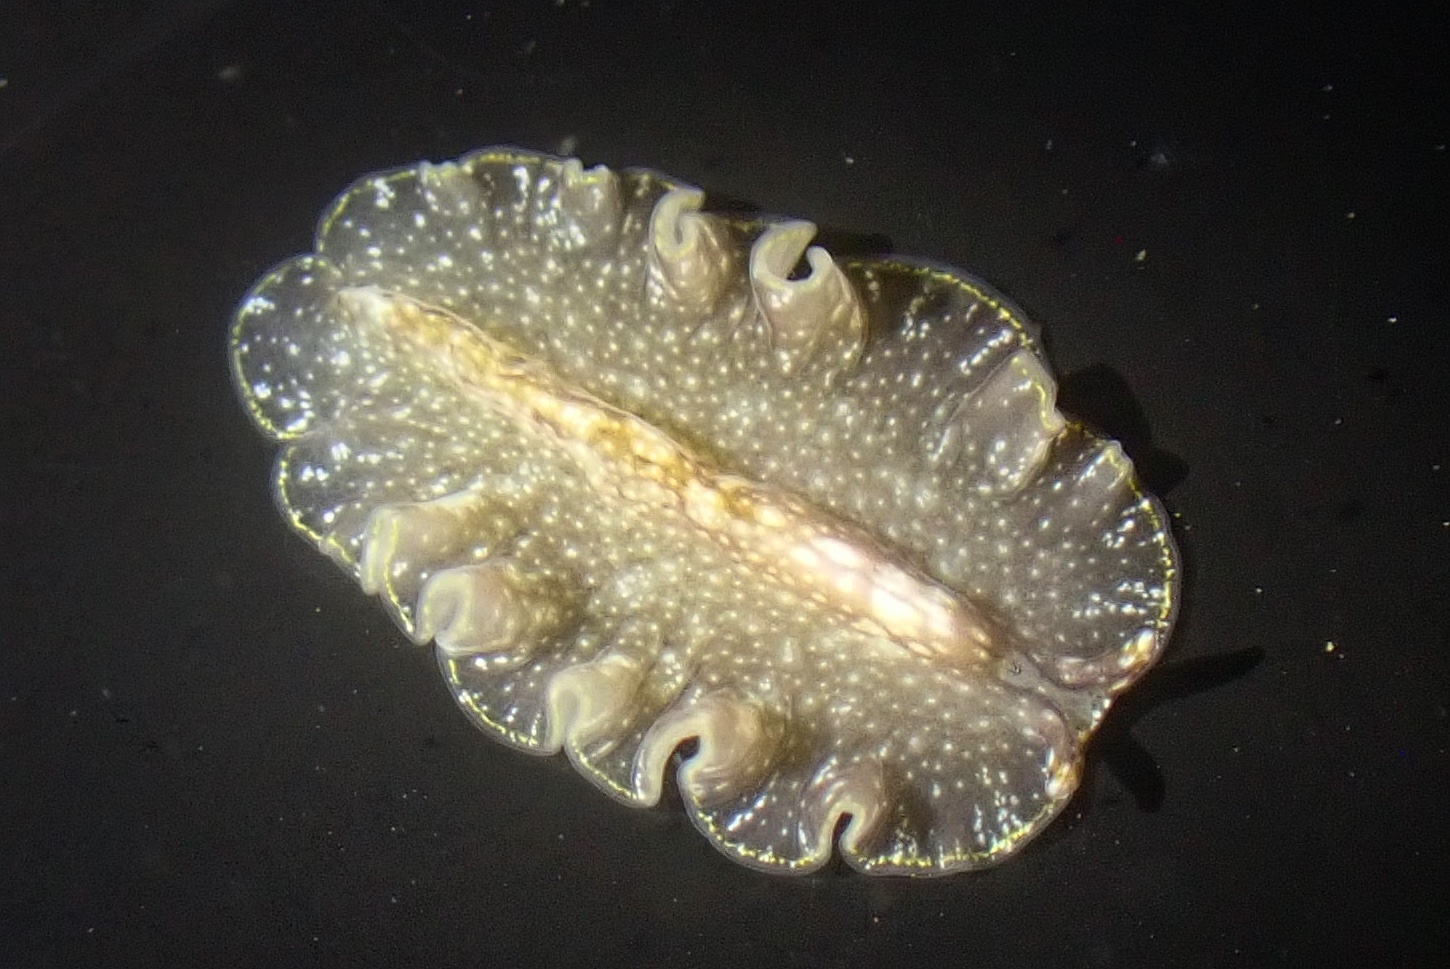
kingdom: Animalia
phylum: Platyhelminthes
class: Turbellaria
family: Pseudocerotidae
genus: Pseudoceros
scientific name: Pseudoceros mexicanus
